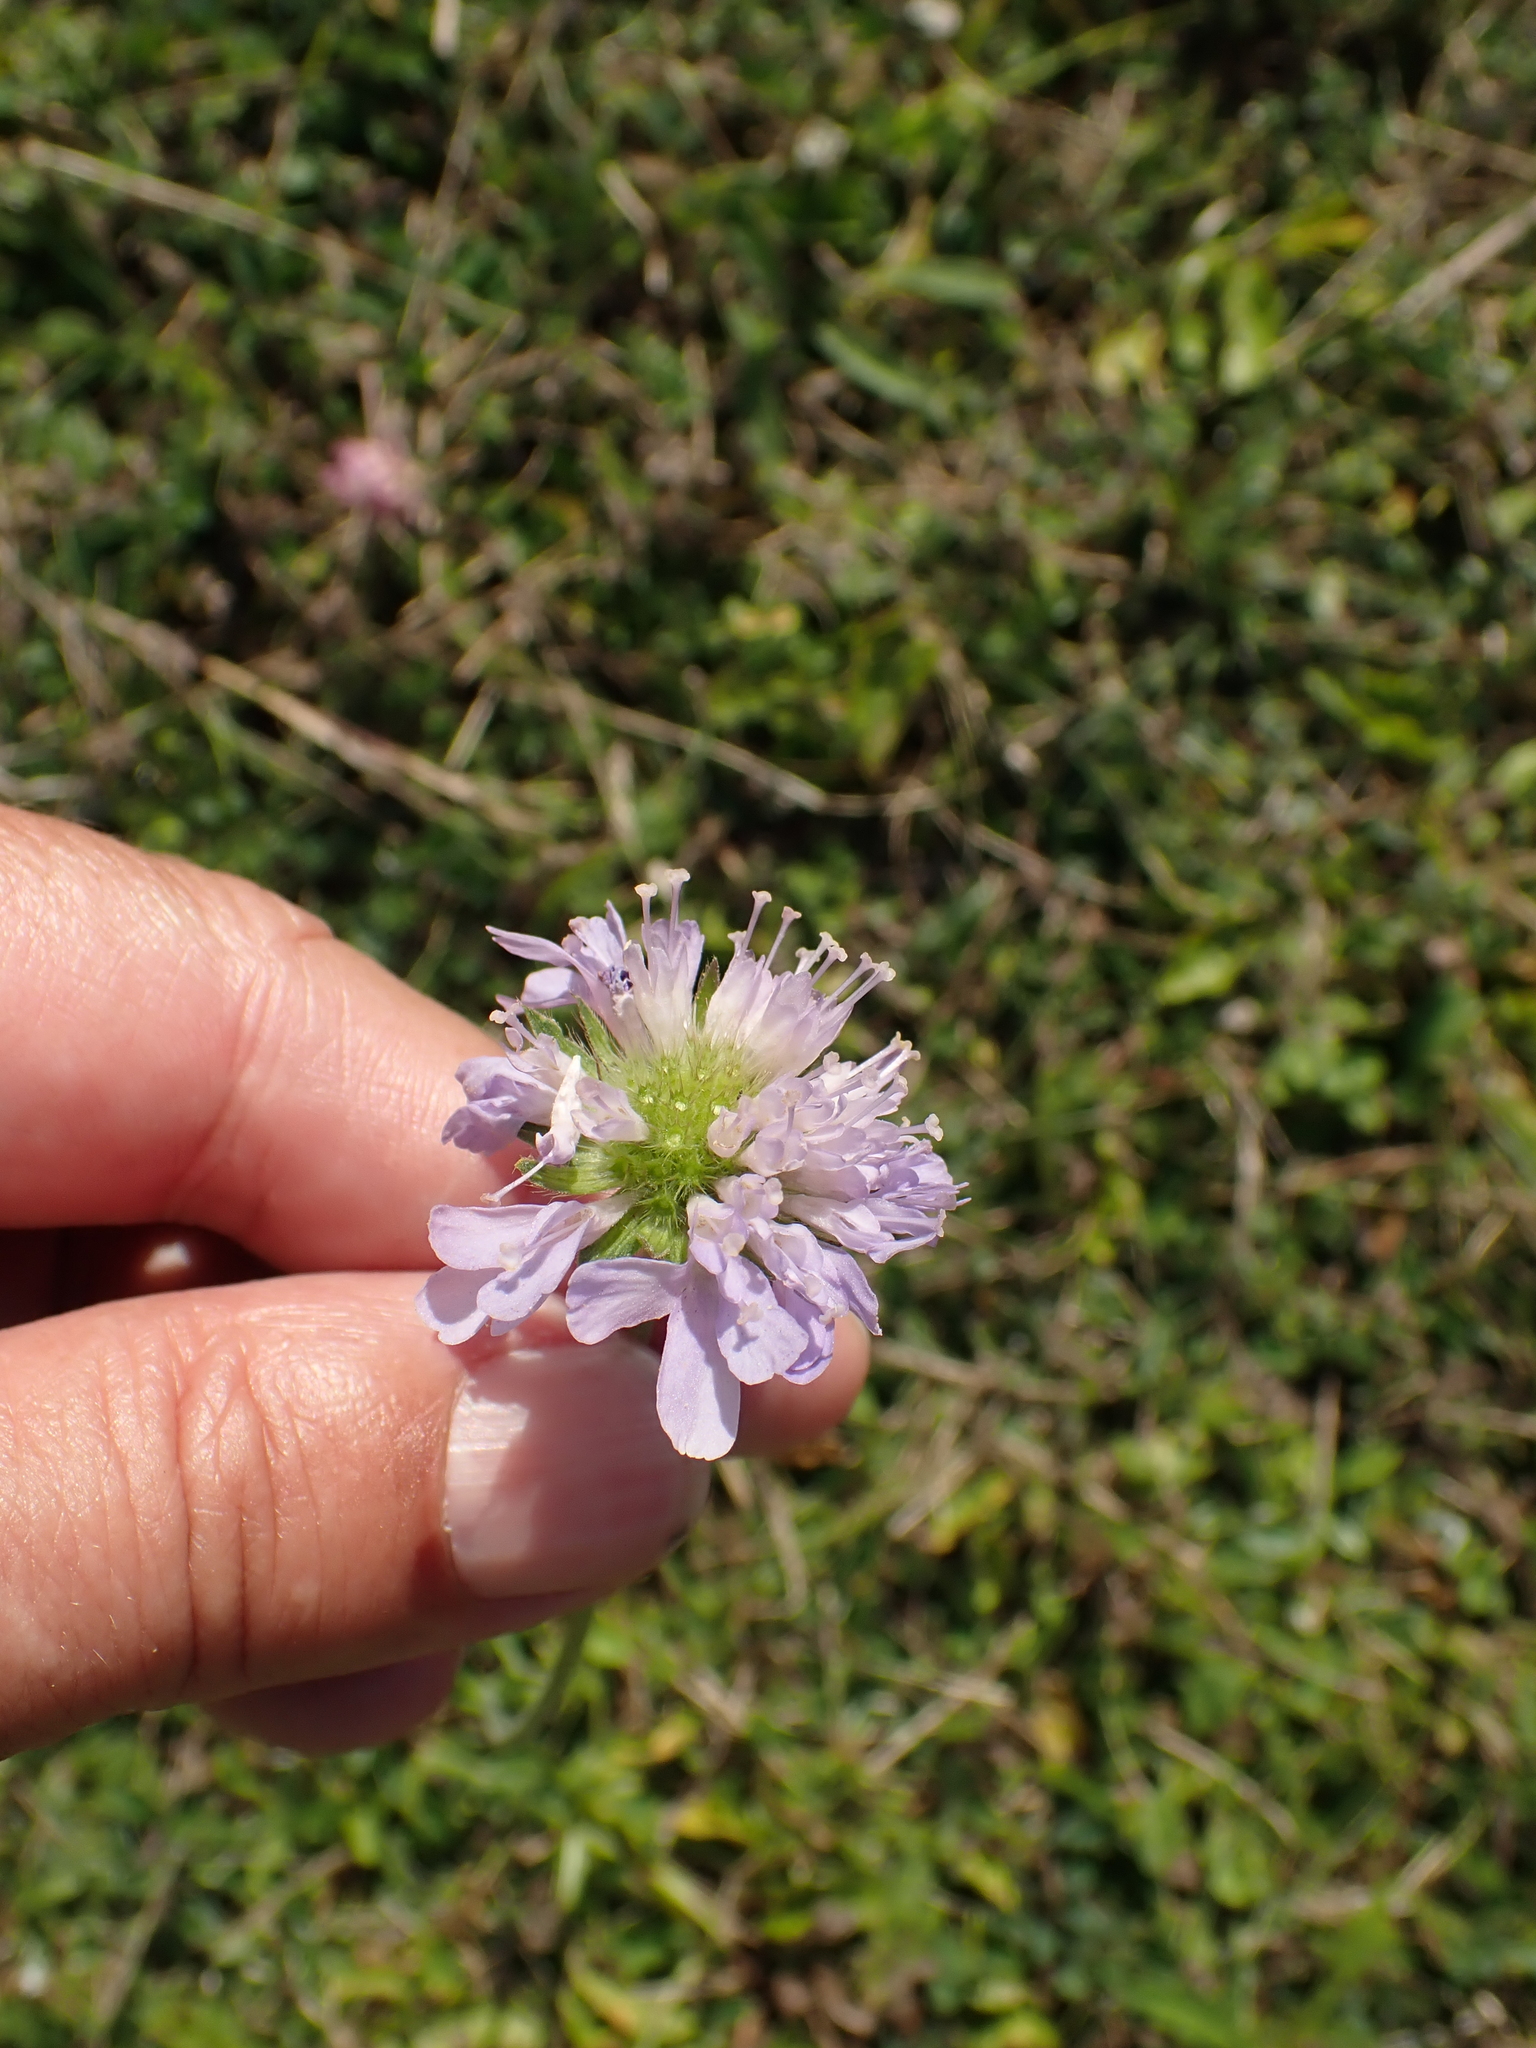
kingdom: Plantae
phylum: Tracheophyta
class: Magnoliopsida
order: Dipsacales
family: Caprifoliaceae
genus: Knautia
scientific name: Knautia arvensis
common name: Field scabiosa
